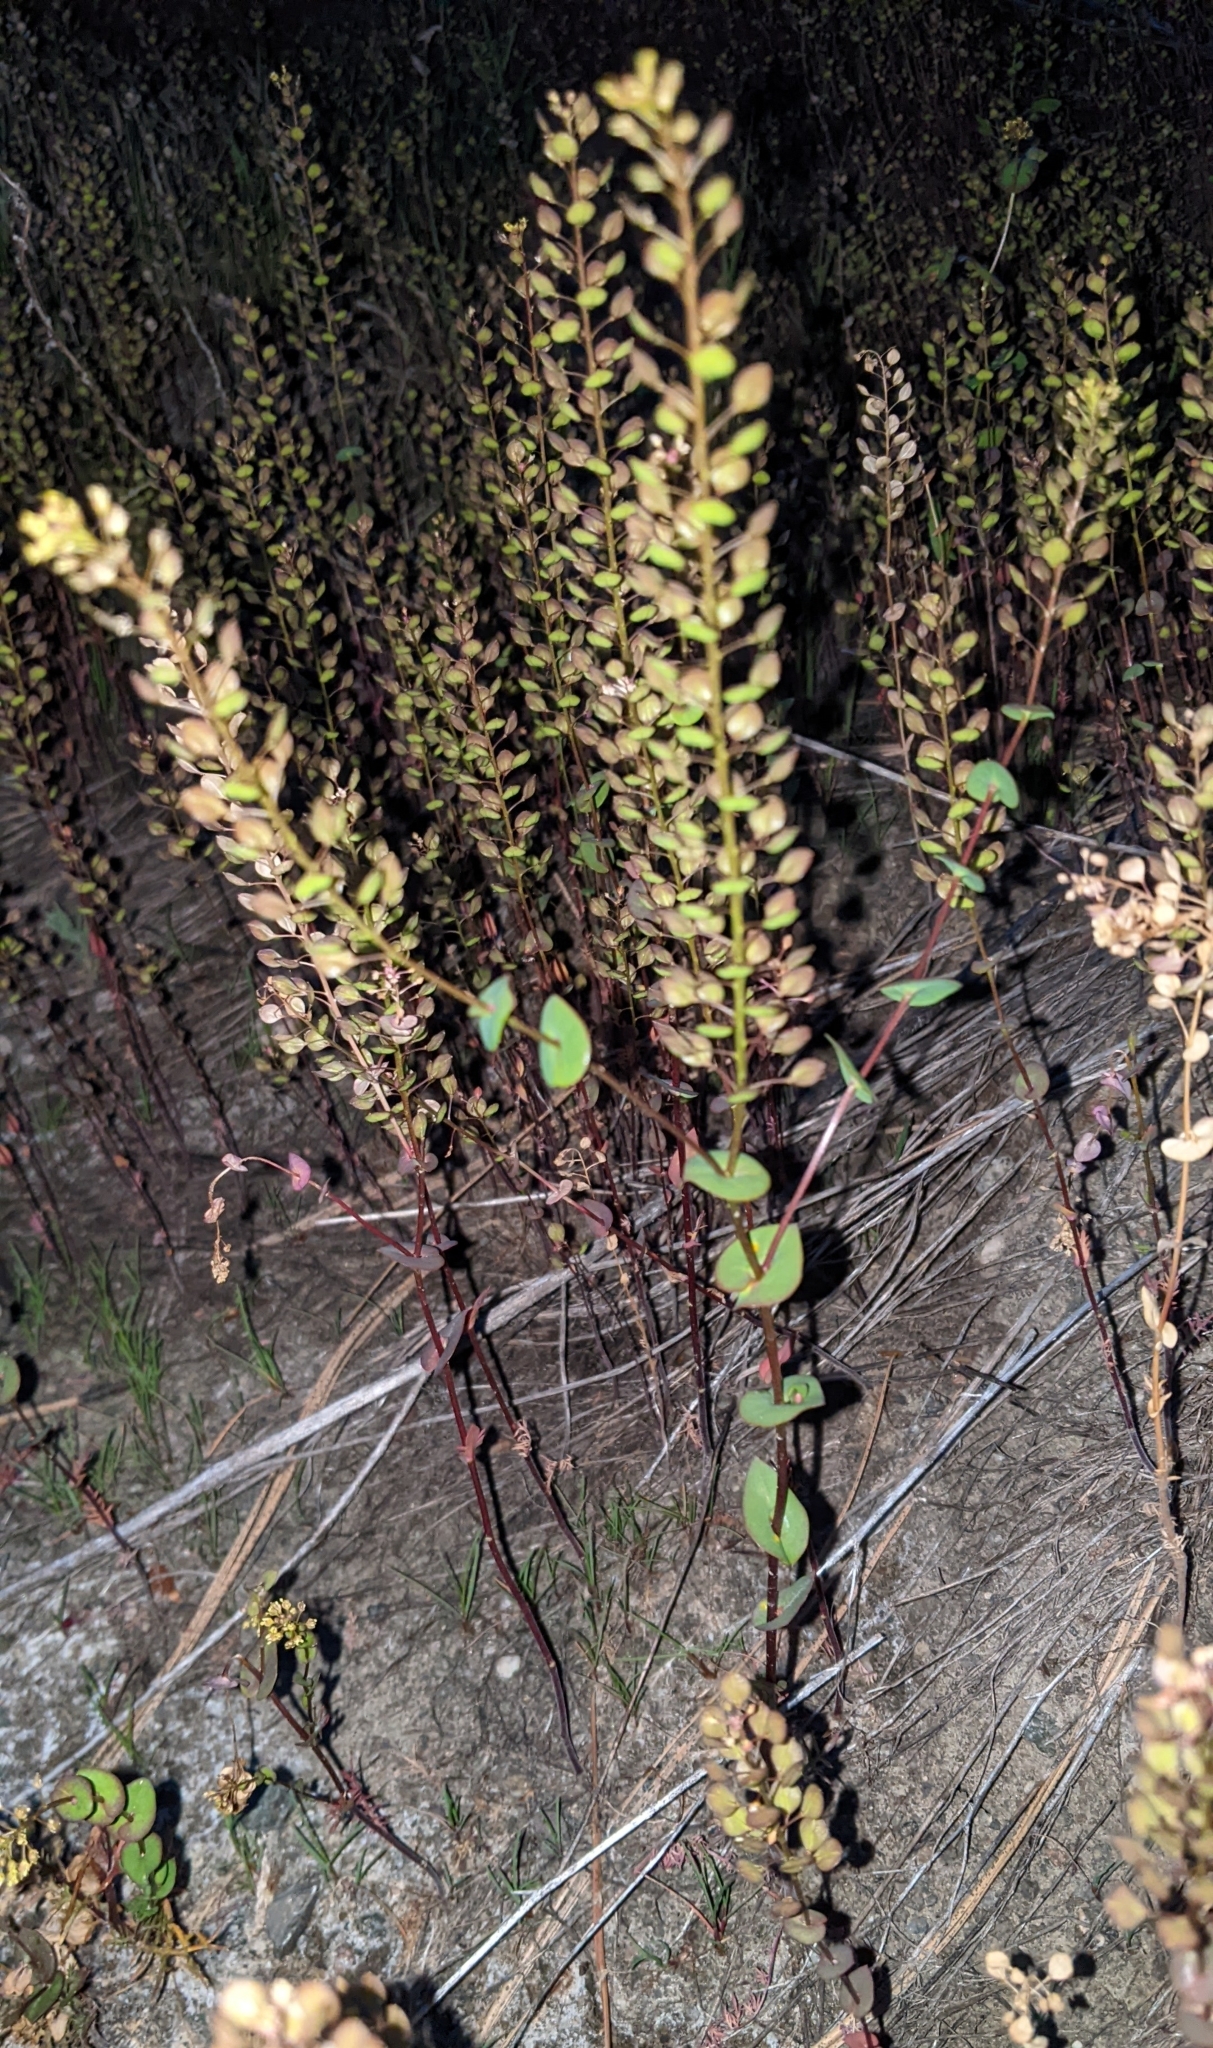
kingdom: Plantae
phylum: Tracheophyta
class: Magnoliopsida
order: Brassicales
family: Brassicaceae
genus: Lepidium
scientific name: Lepidium perfoliatum
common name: Perfoliate pepperwort
